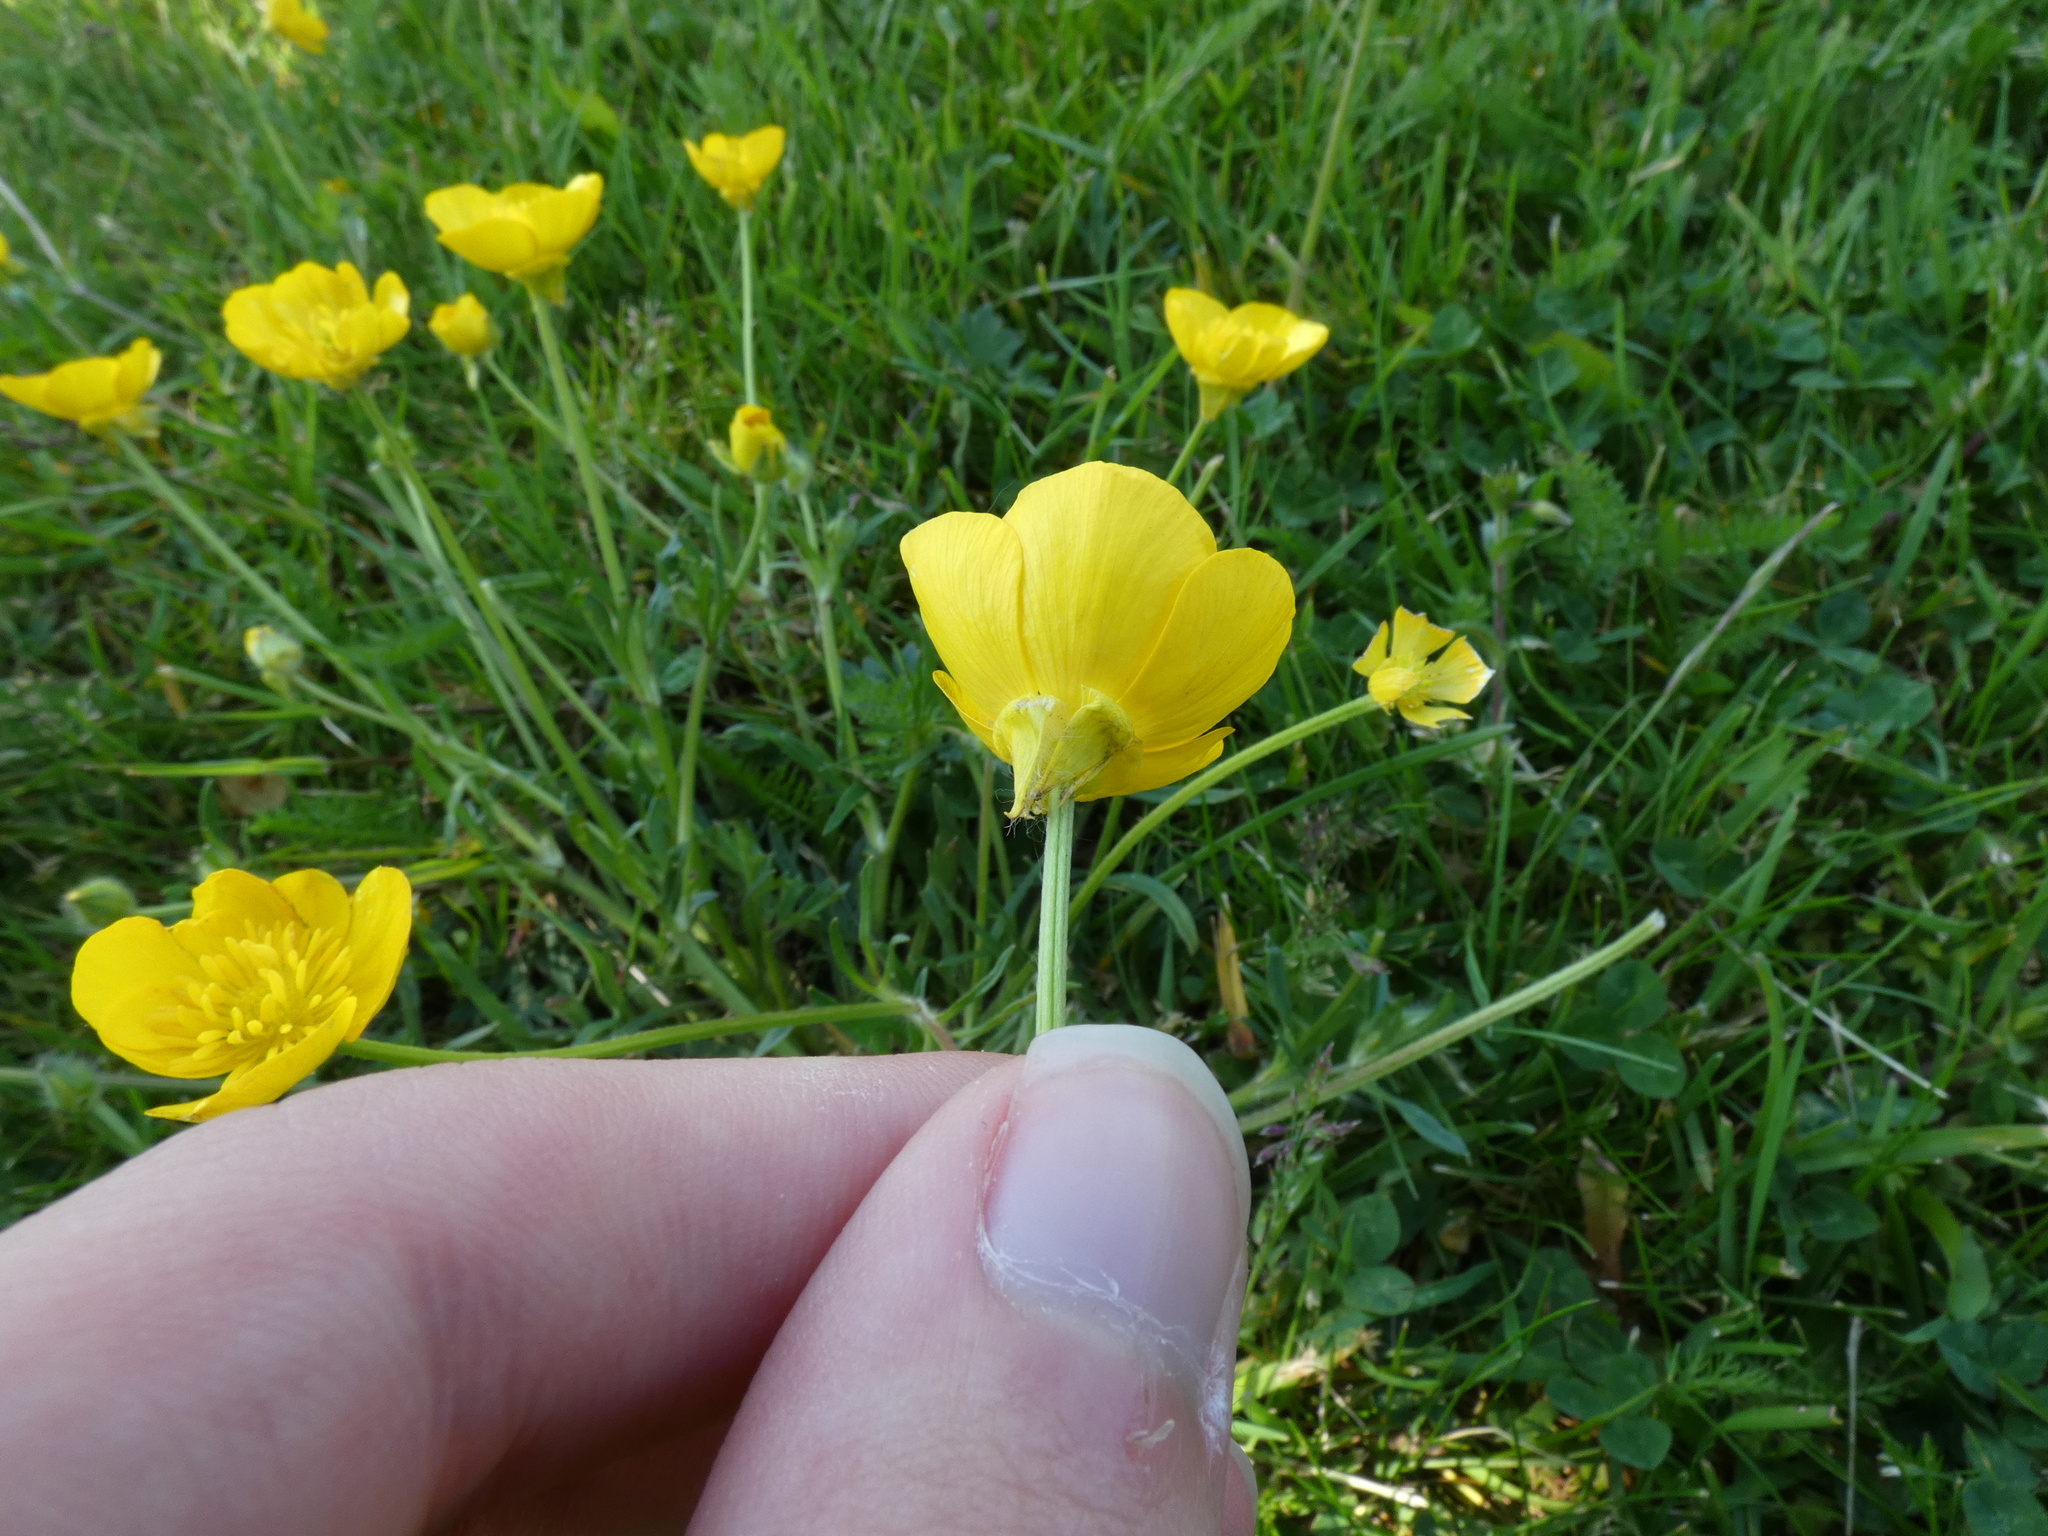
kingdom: Plantae
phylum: Tracheophyta
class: Magnoliopsida
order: Ranunculales
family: Ranunculaceae
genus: Ranunculus
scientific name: Ranunculus bulbosus
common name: Bulbous buttercup
